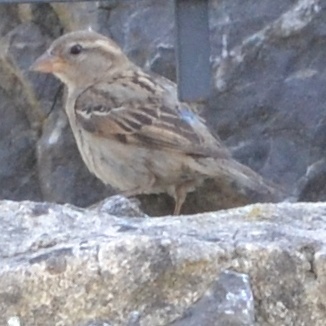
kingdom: Animalia
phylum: Chordata
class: Aves
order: Passeriformes
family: Passeridae
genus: Passer
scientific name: Passer domesticus
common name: House sparrow
